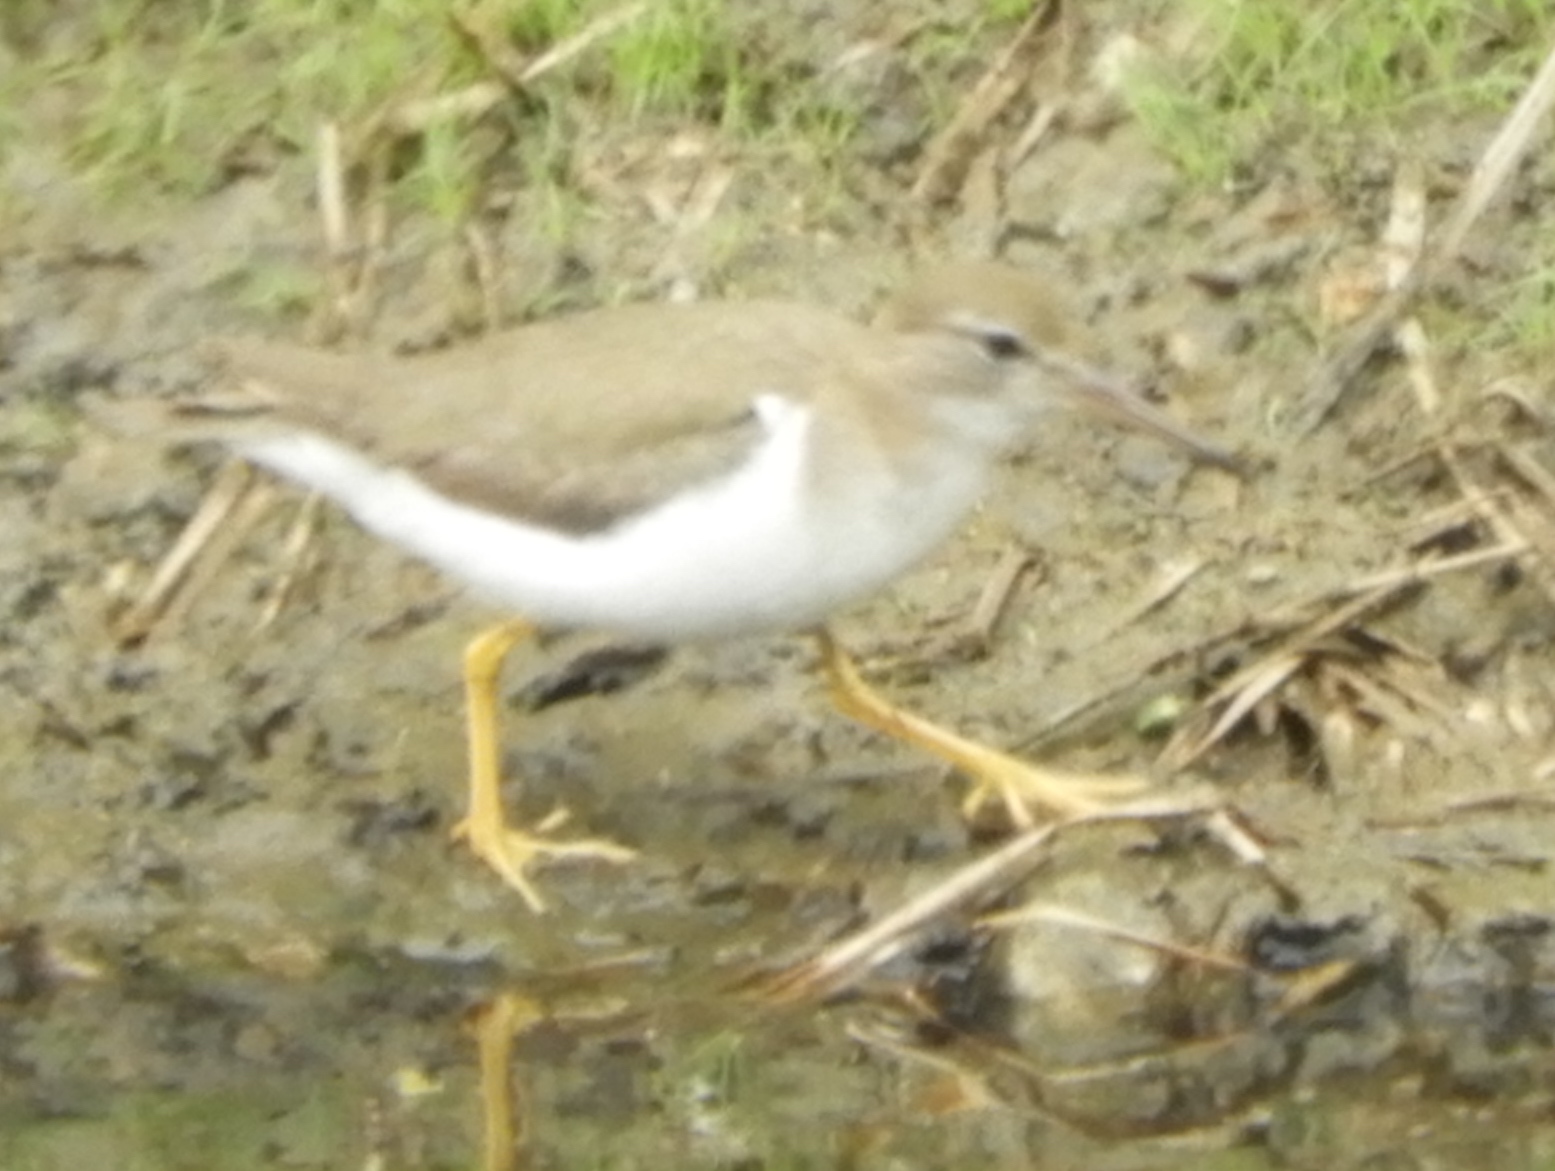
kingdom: Animalia
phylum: Chordata
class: Aves
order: Charadriiformes
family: Scolopacidae
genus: Actitis
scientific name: Actitis macularius
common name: Spotted sandpiper
